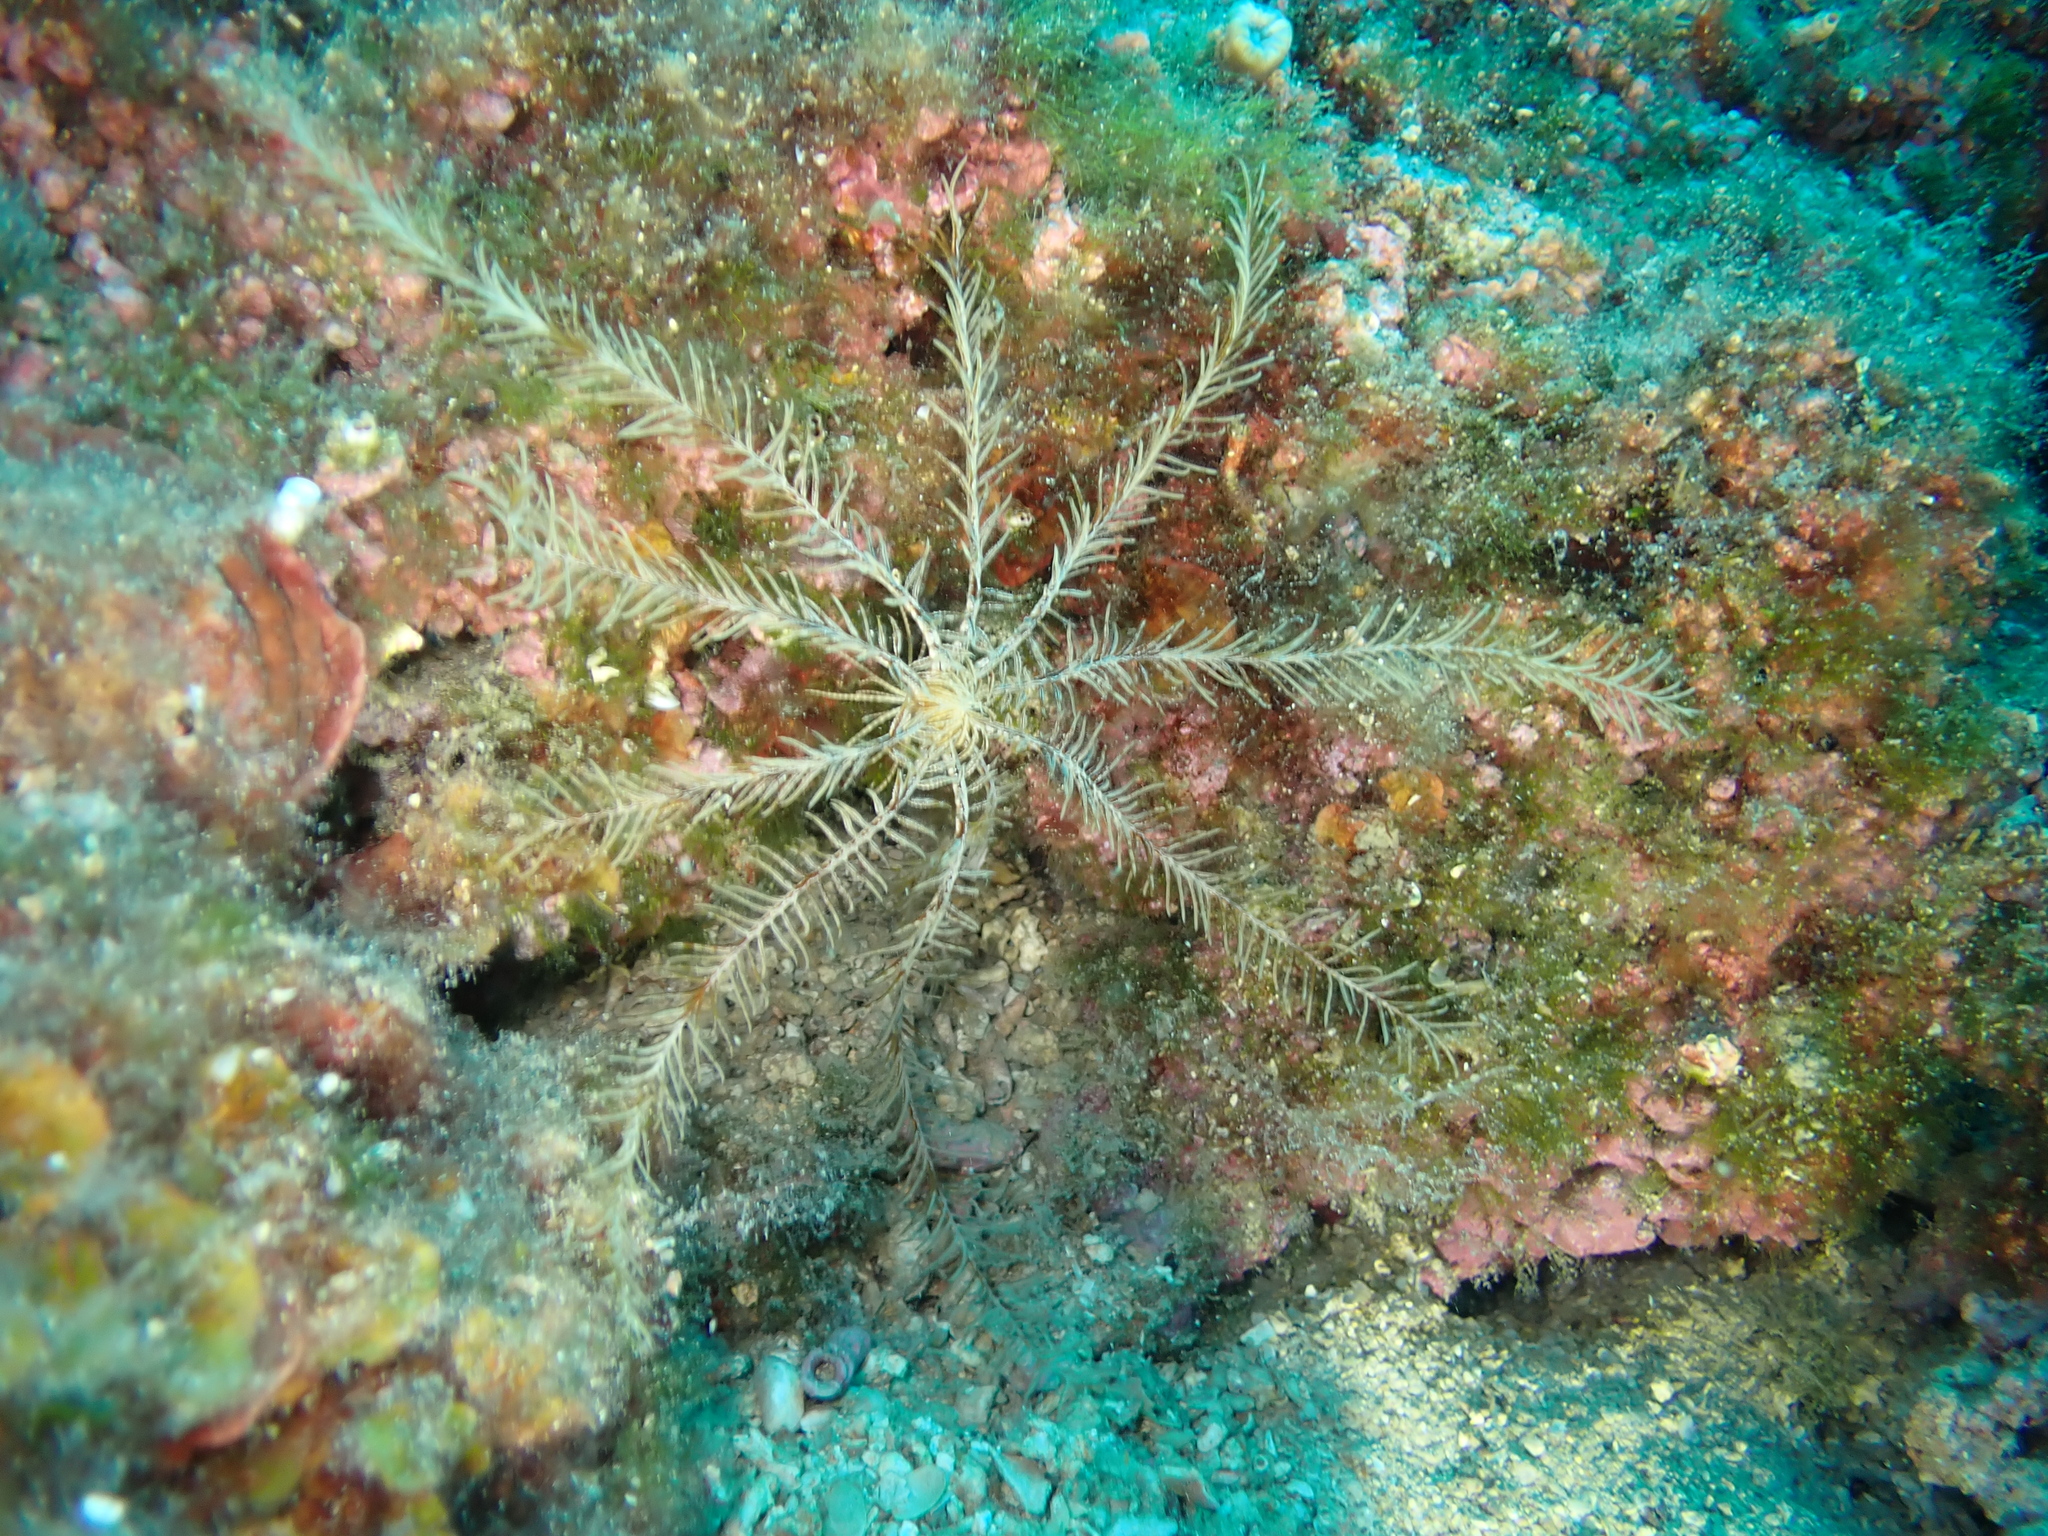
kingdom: Animalia
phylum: Echinodermata
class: Crinoidea
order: Comatulida
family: Antedonidae
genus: Antedon
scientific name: Antedon mediterranea
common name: Feather star
